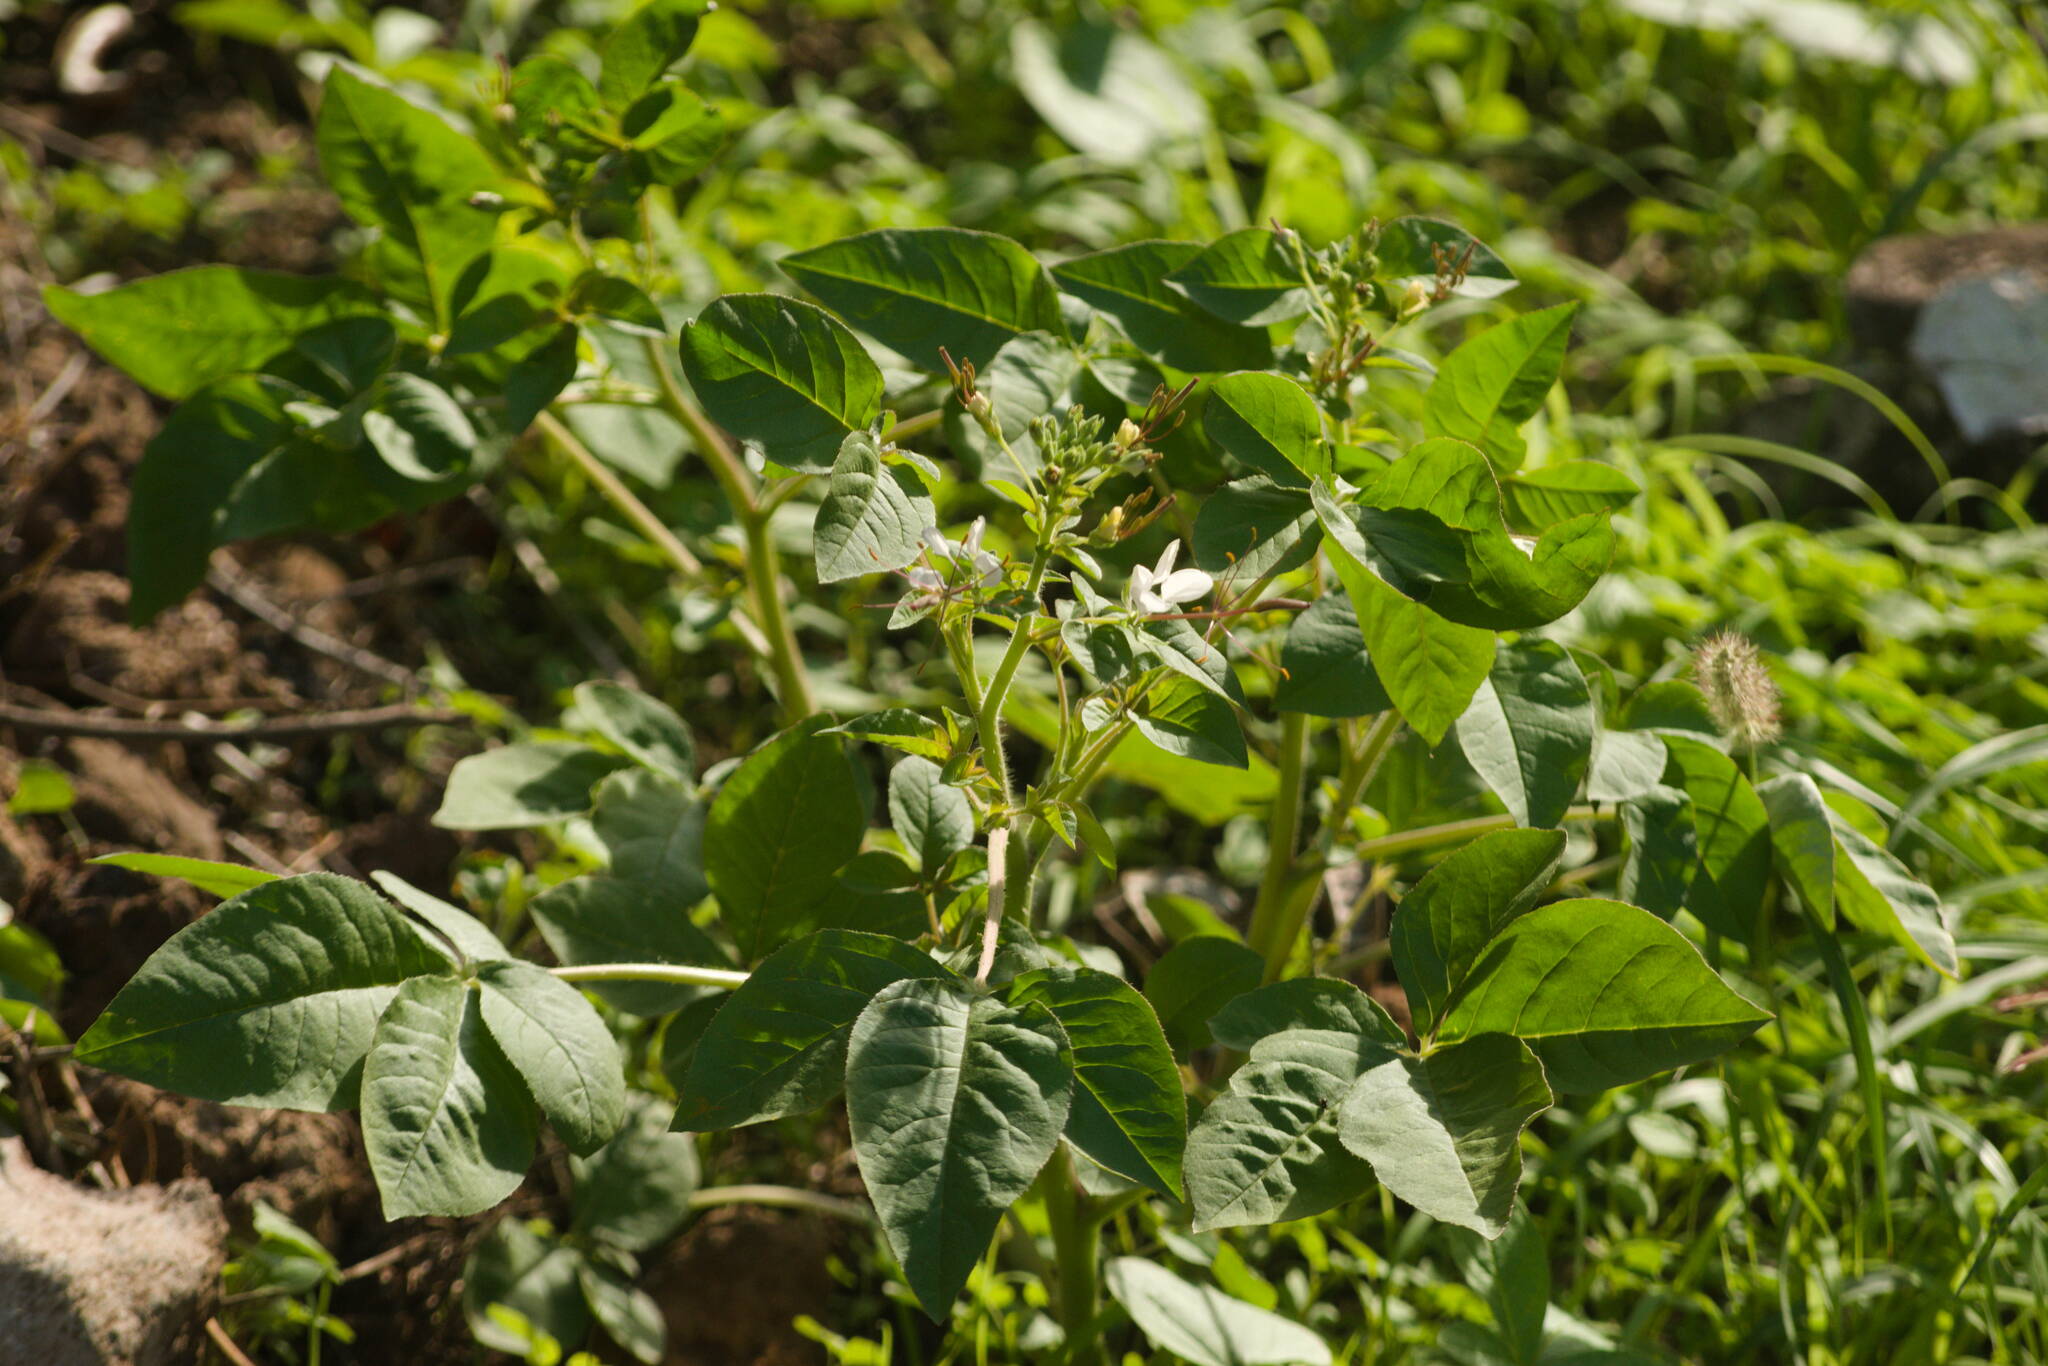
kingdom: Plantae
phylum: Tracheophyta
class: Magnoliopsida
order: Brassicales
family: Cleomaceae
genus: Gynandropsis
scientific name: Gynandropsis gynandra
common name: Spiderwisp
